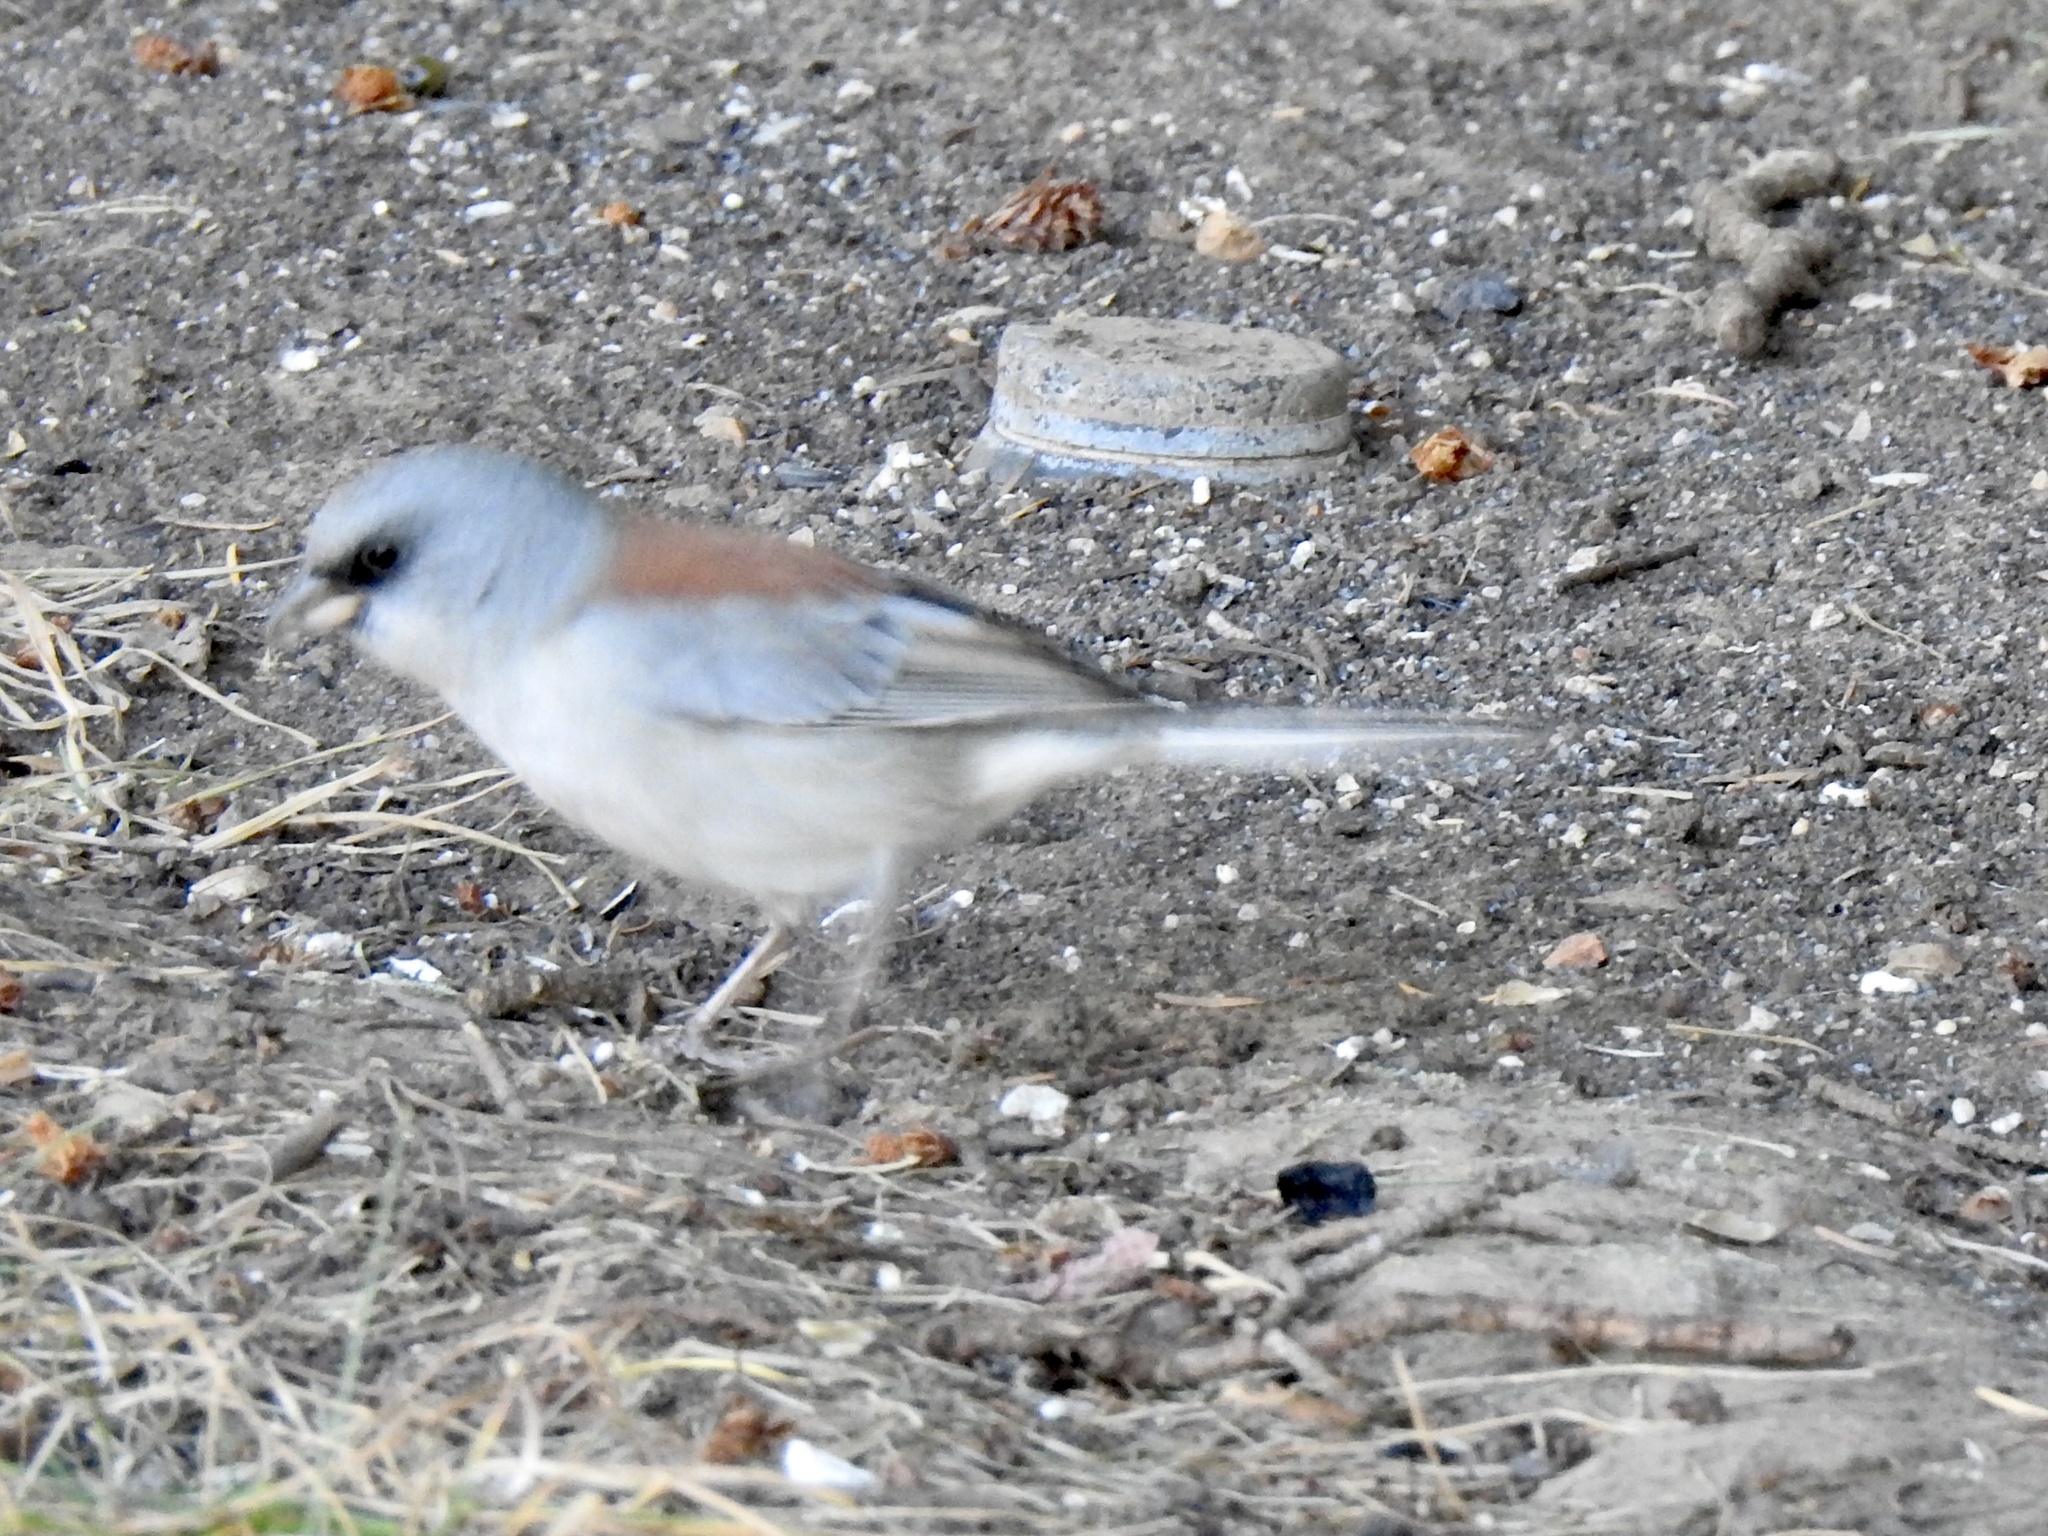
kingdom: Animalia
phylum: Chordata
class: Aves
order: Passeriformes
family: Passerellidae
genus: Junco
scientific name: Junco hyemalis
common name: Dark-eyed junco
